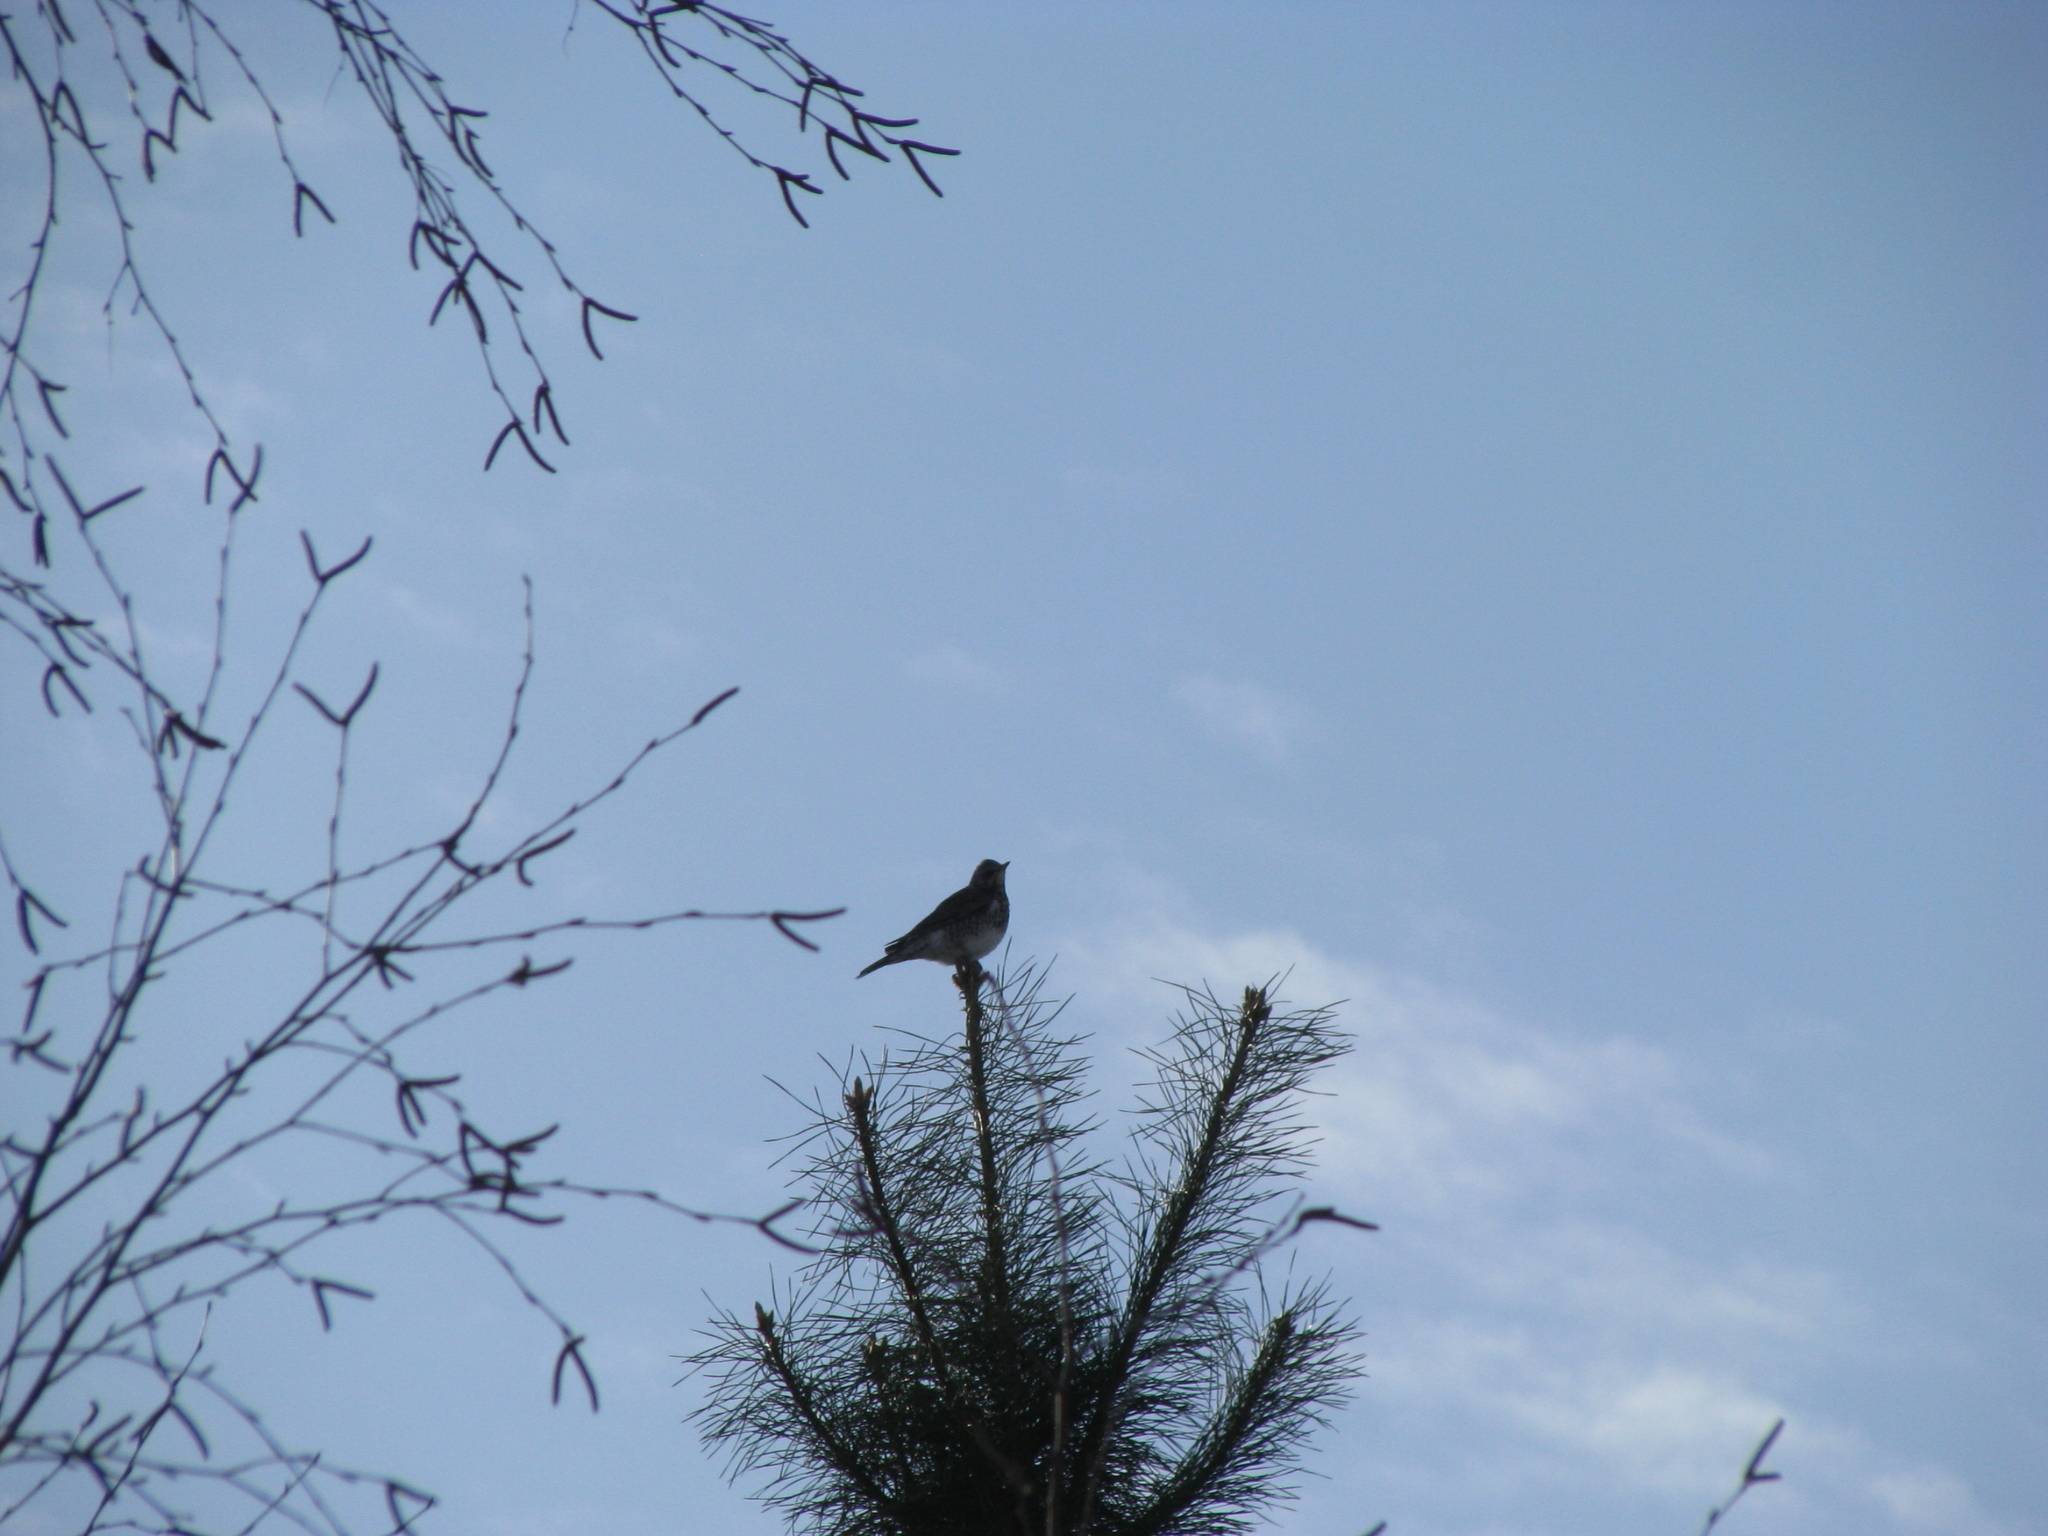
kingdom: Animalia
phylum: Chordata
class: Aves
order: Passeriformes
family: Turdidae
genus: Turdus
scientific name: Turdus pilaris
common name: Fieldfare
